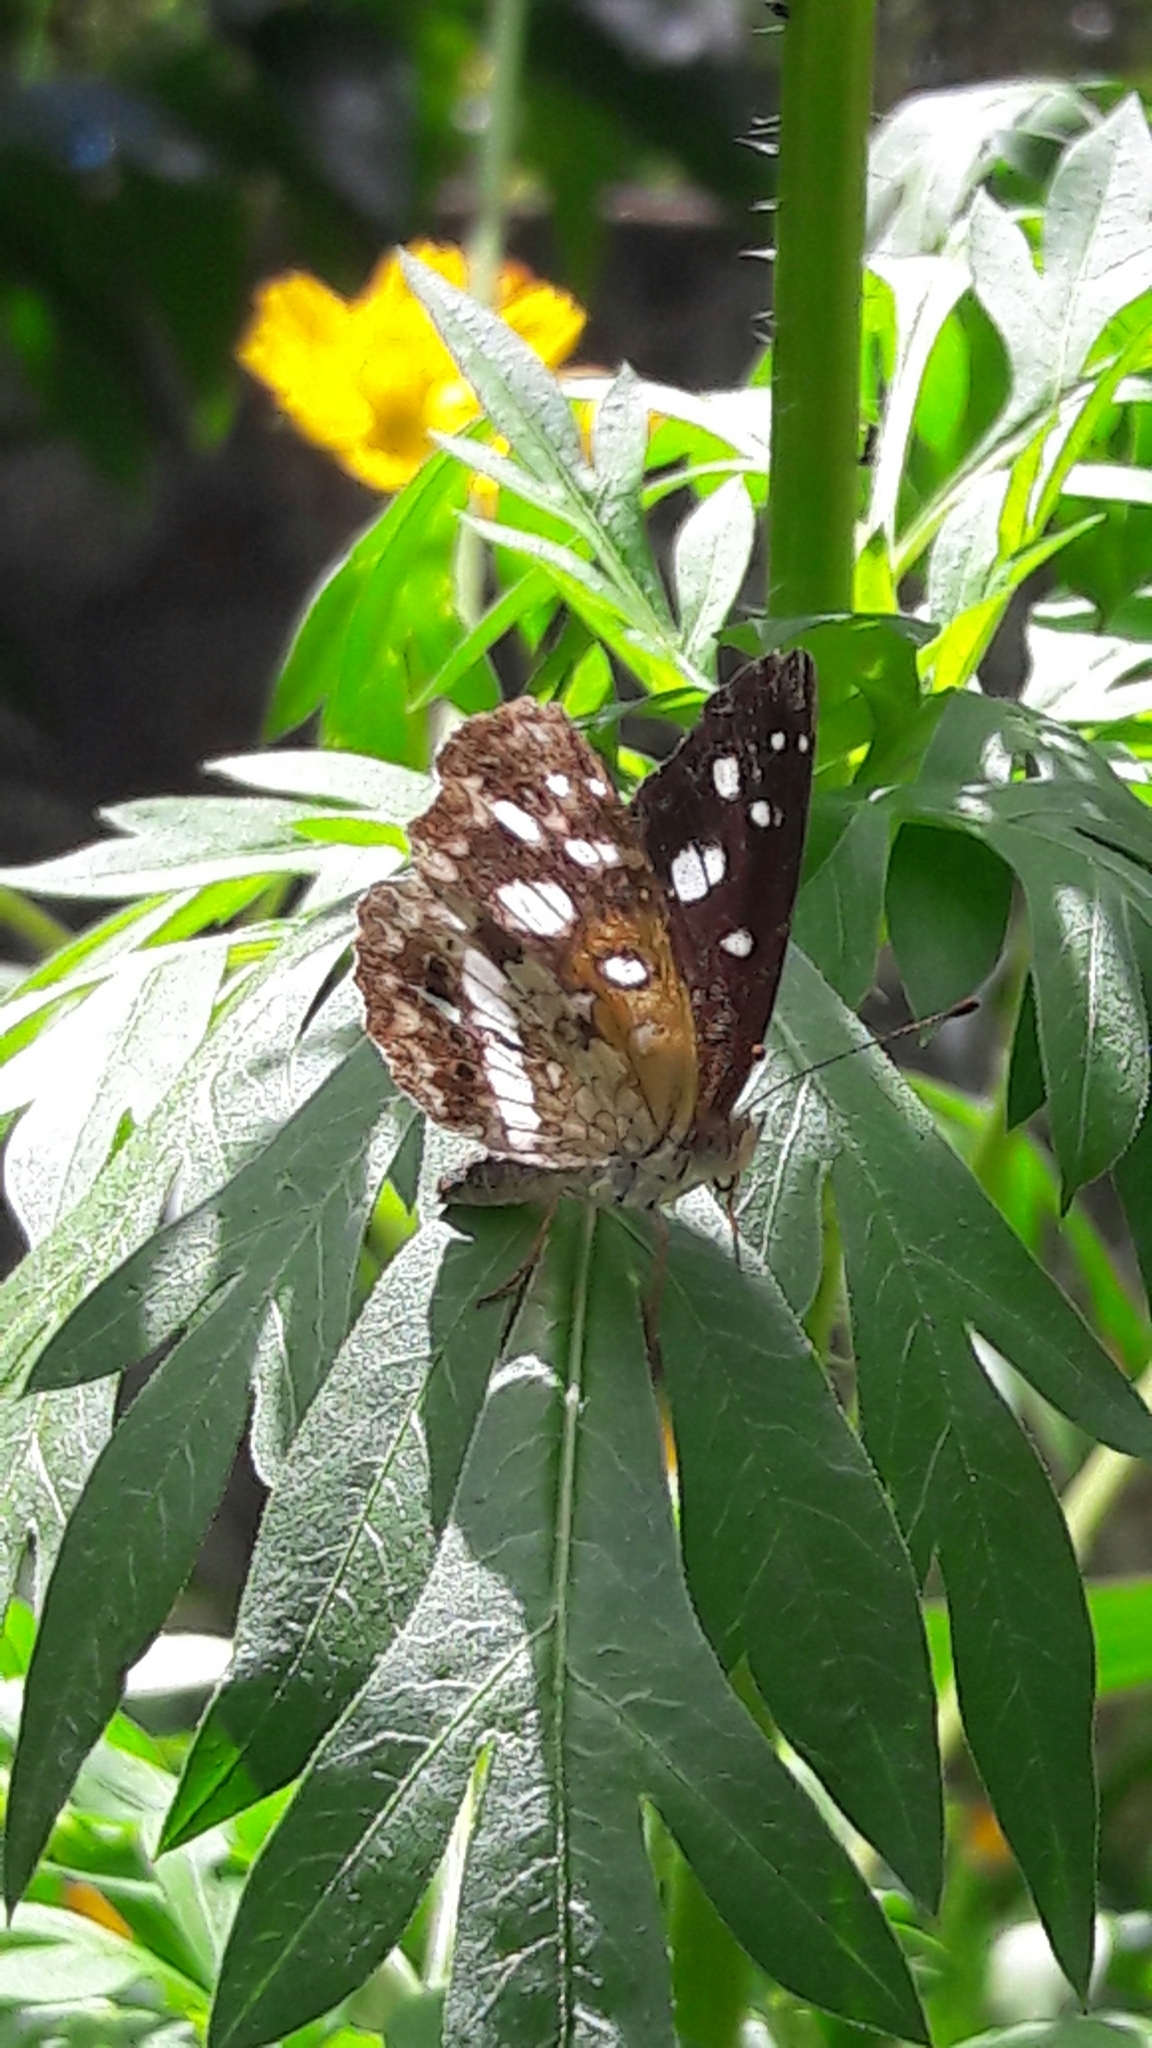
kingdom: Animalia
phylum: Arthropoda
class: Insecta
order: Lepidoptera
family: Nymphalidae
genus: Ortilia
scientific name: Ortilia ithra
